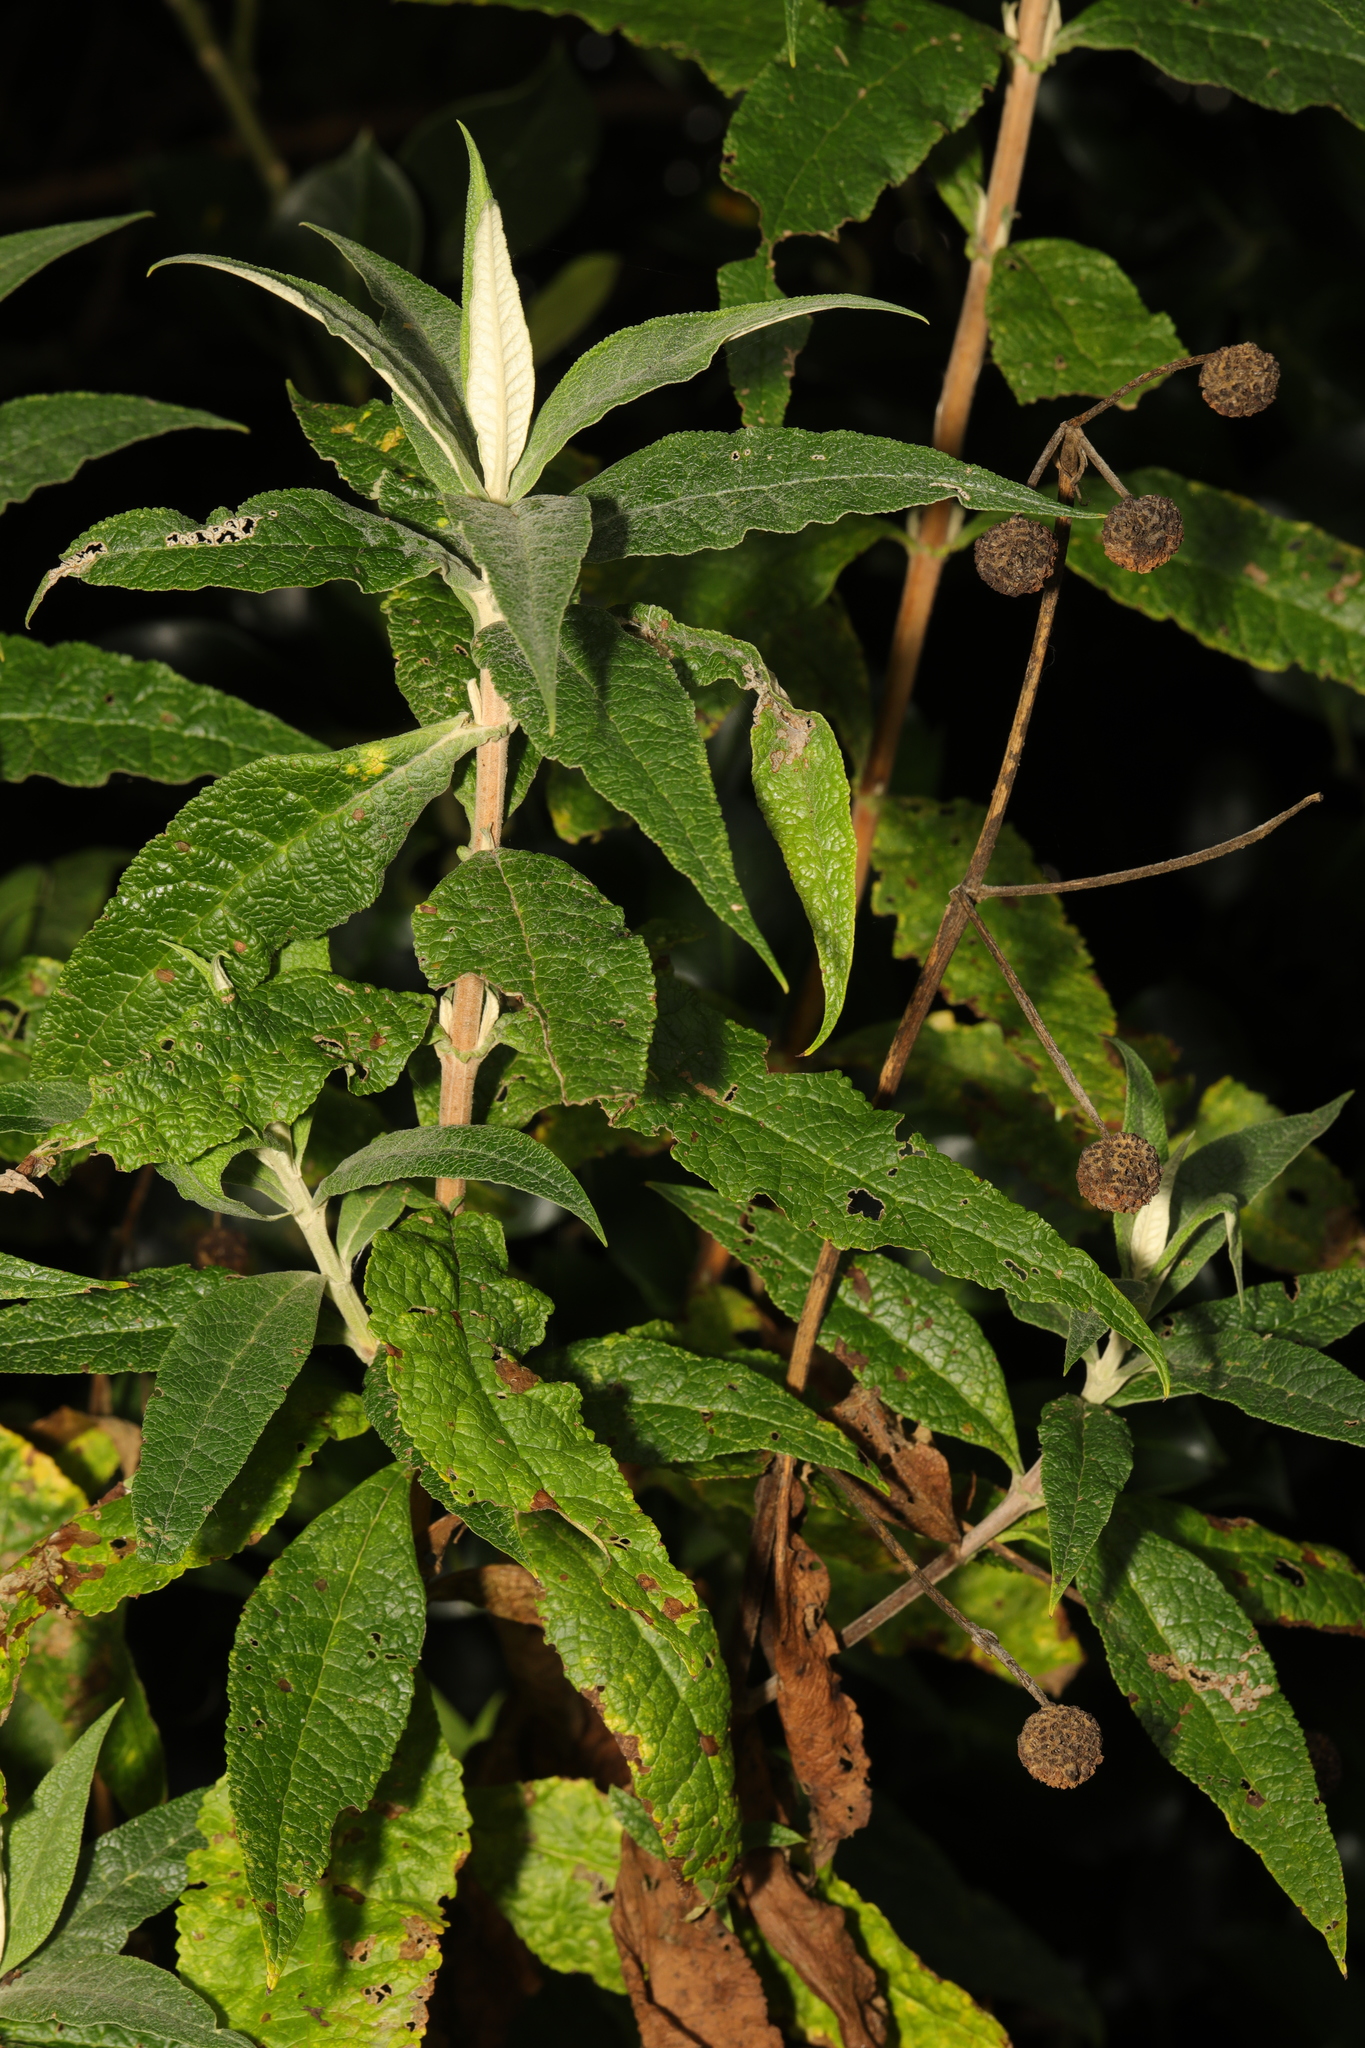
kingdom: Plantae
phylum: Tracheophyta
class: Magnoliopsida
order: Lamiales
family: Scrophulariaceae
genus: Buddleja
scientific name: Buddleja globosa
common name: Orange-ball-tree
